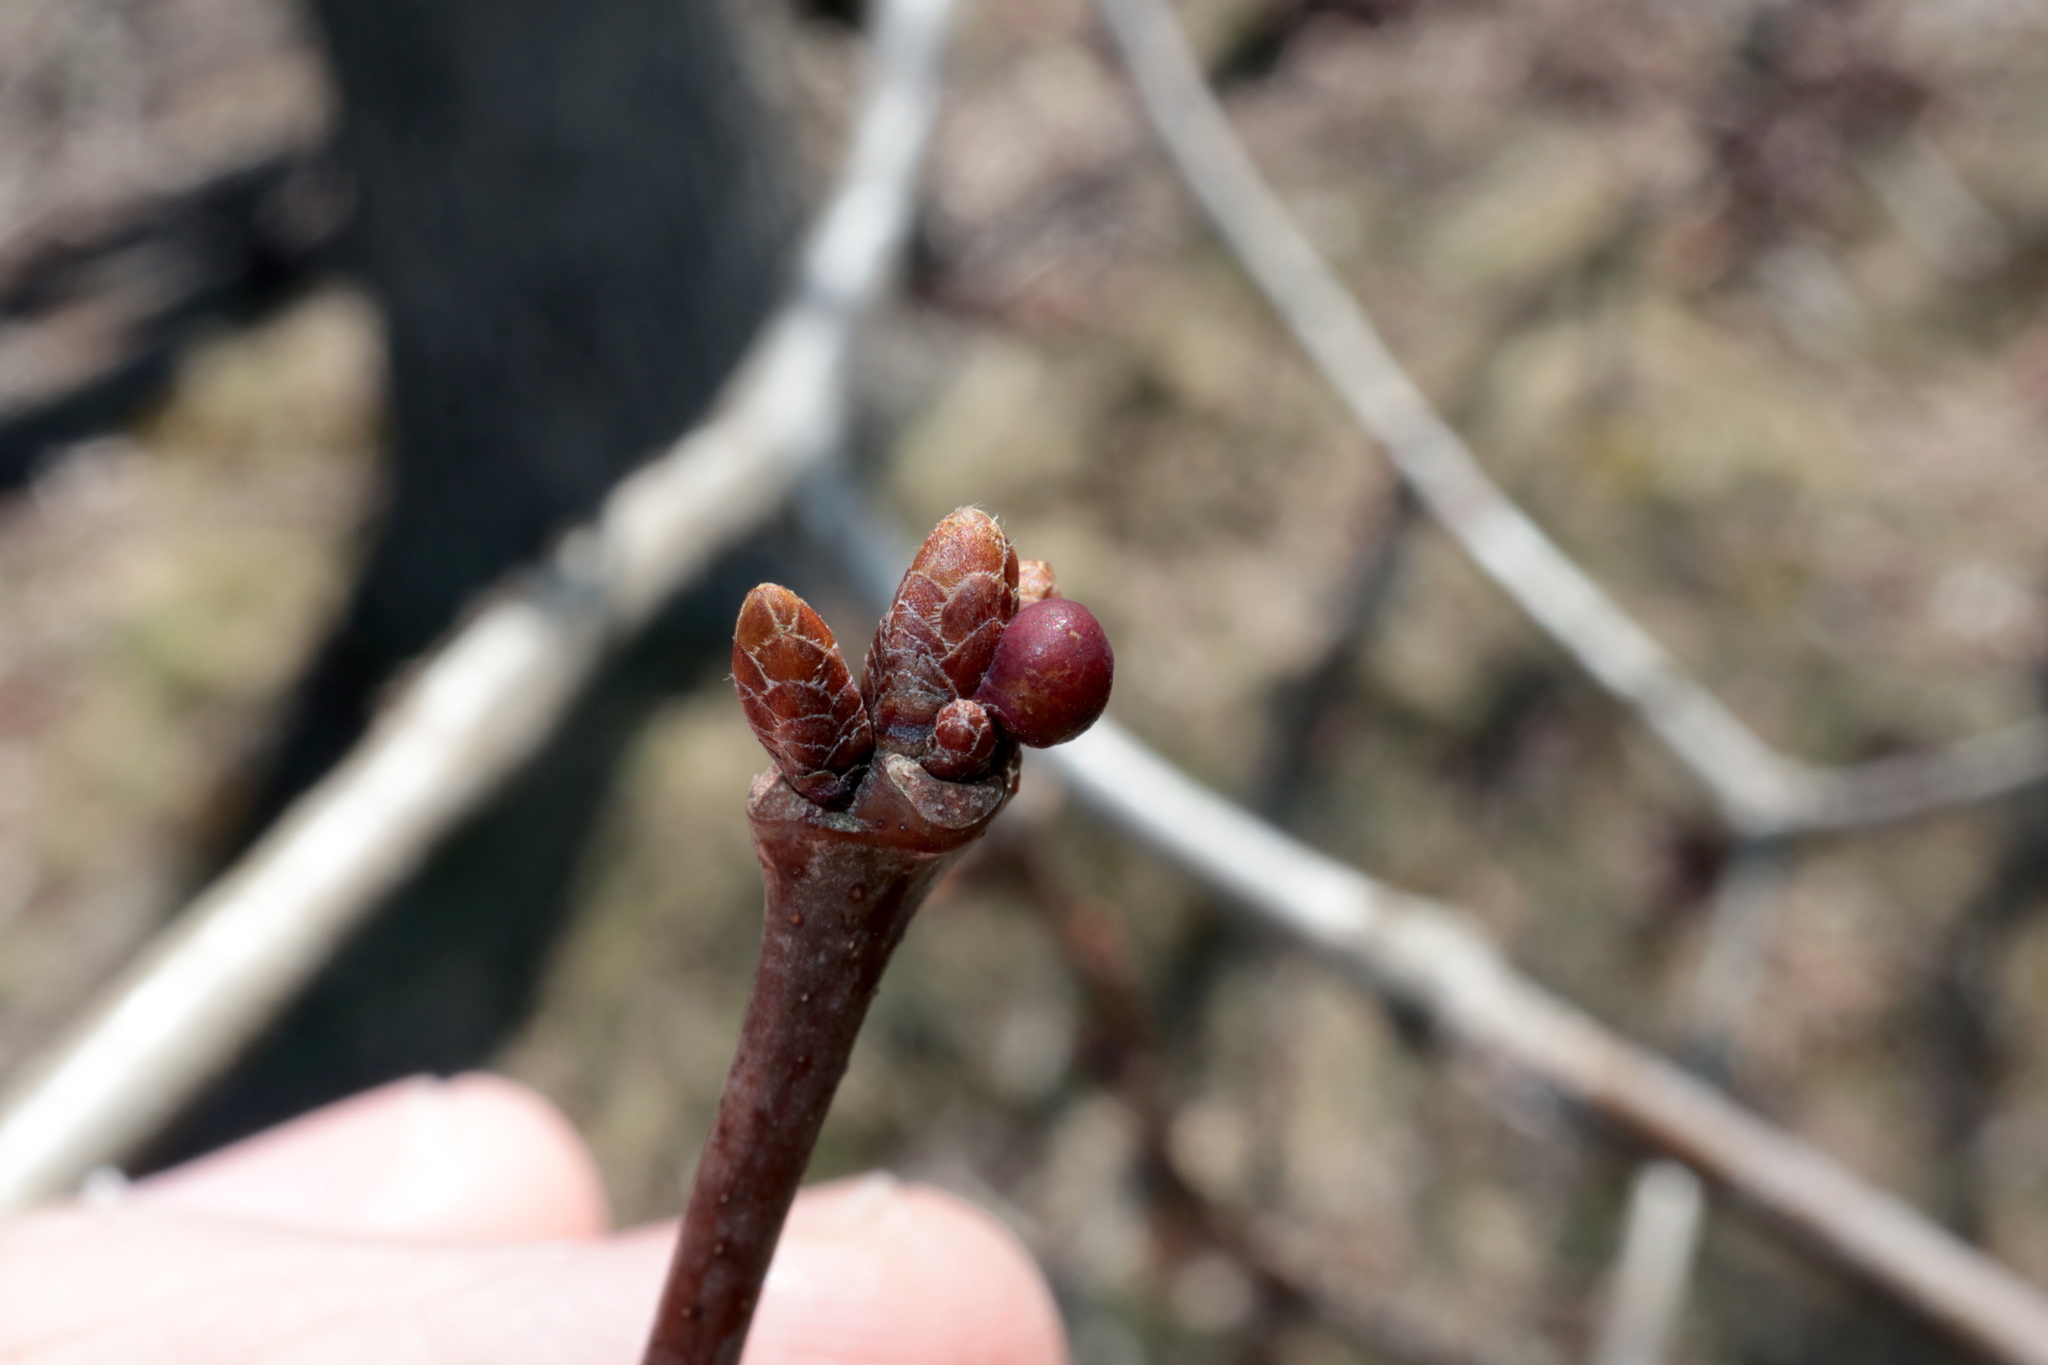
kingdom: Animalia
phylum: Arthropoda
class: Insecta
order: Hymenoptera
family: Cynipidae
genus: Neuroterus
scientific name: Neuroterus
